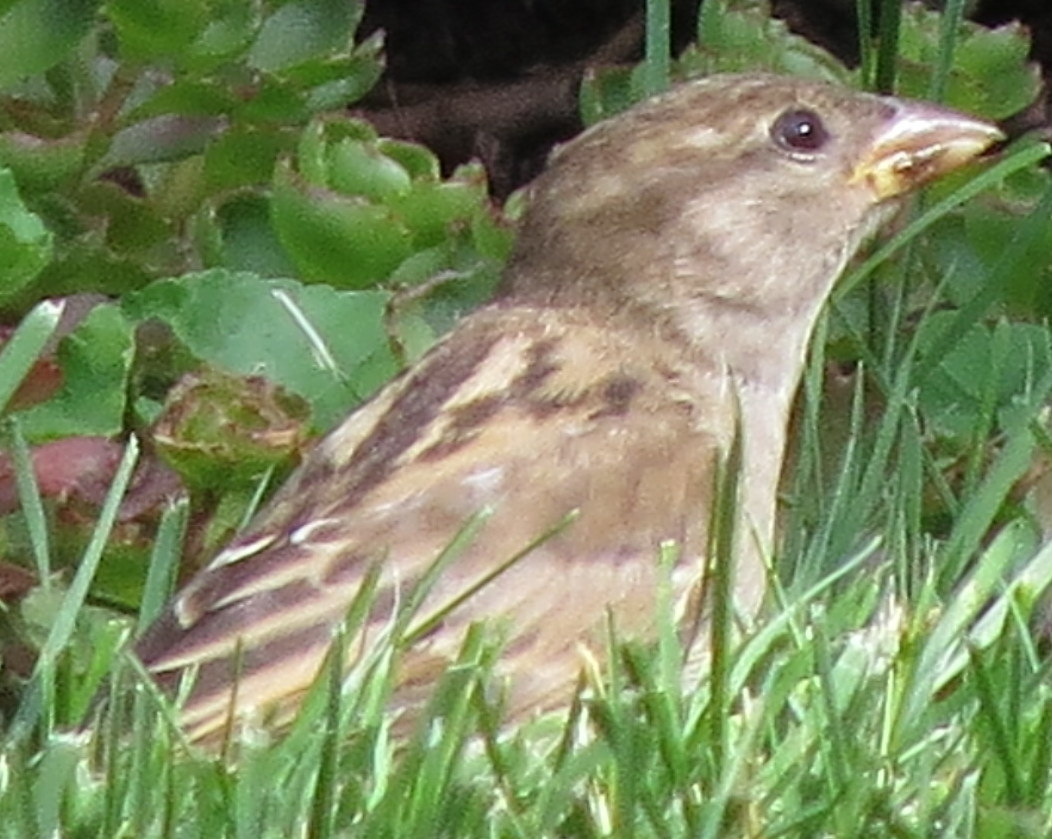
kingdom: Animalia
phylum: Chordata
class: Aves
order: Passeriformes
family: Passeridae
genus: Passer
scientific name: Passer domesticus
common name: House sparrow
